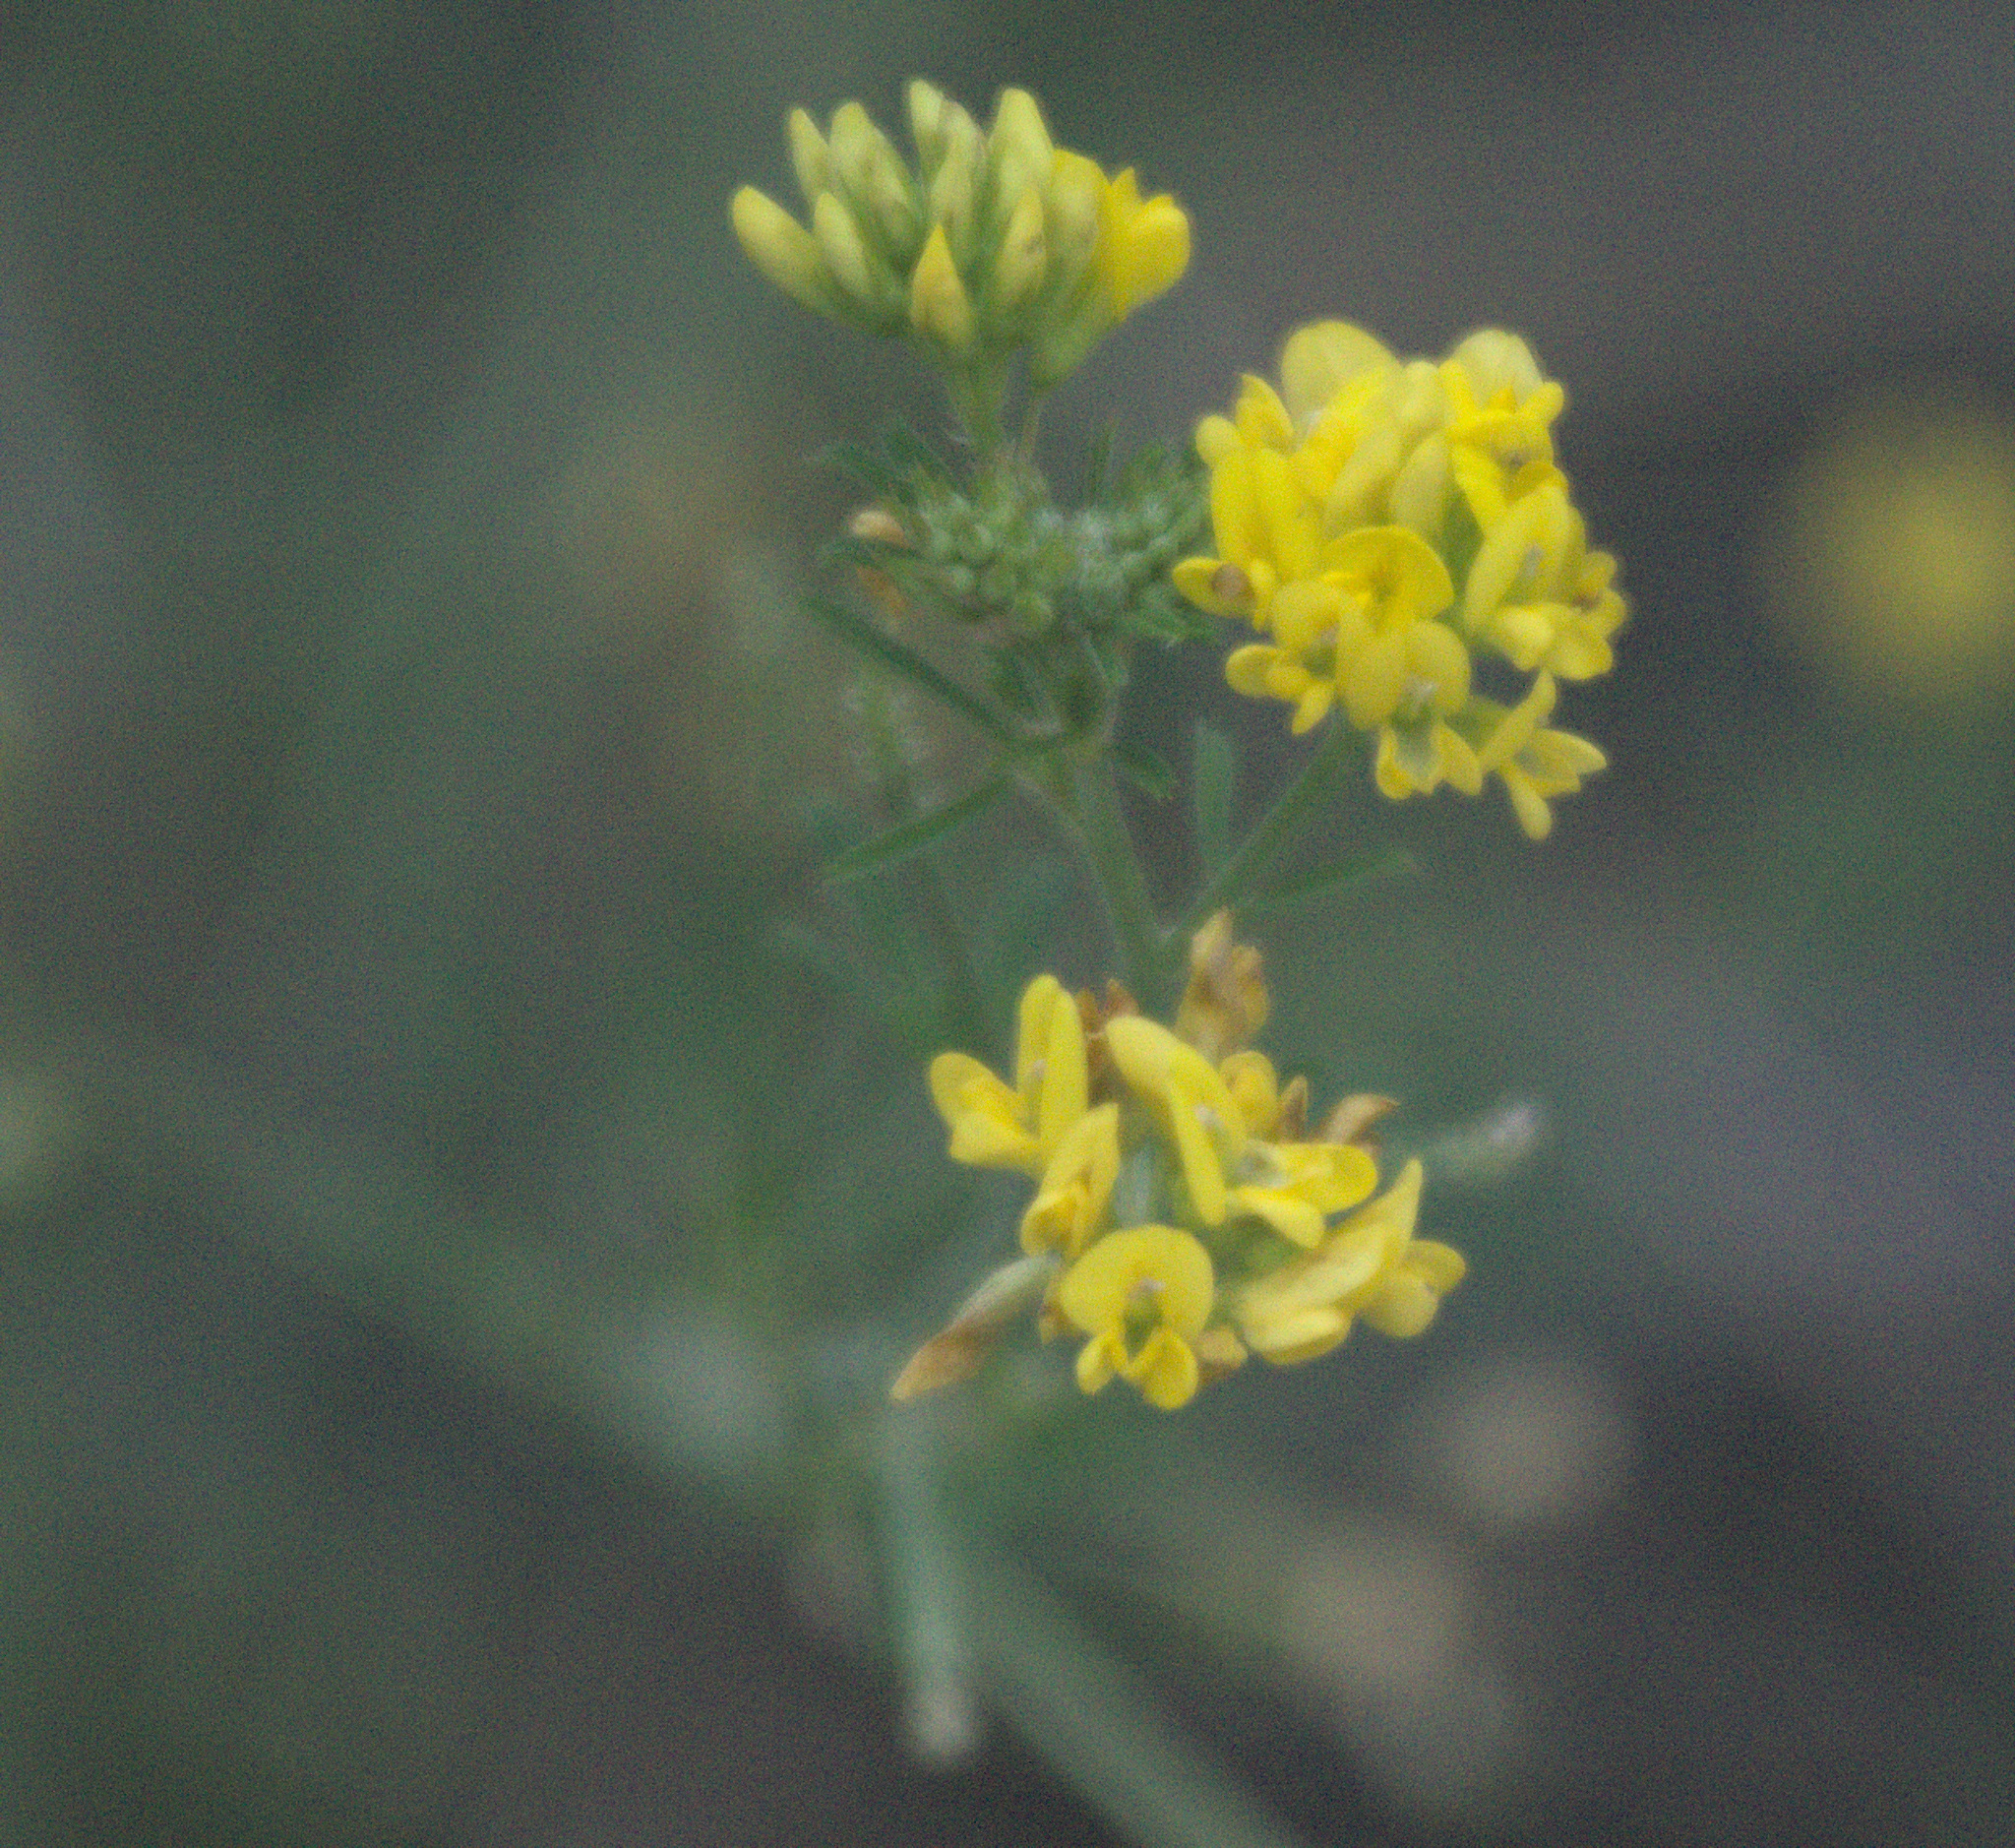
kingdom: Plantae
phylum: Tracheophyta
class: Magnoliopsida
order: Fabales
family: Fabaceae
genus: Medicago
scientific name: Medicago falcata
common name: Sickle medick
